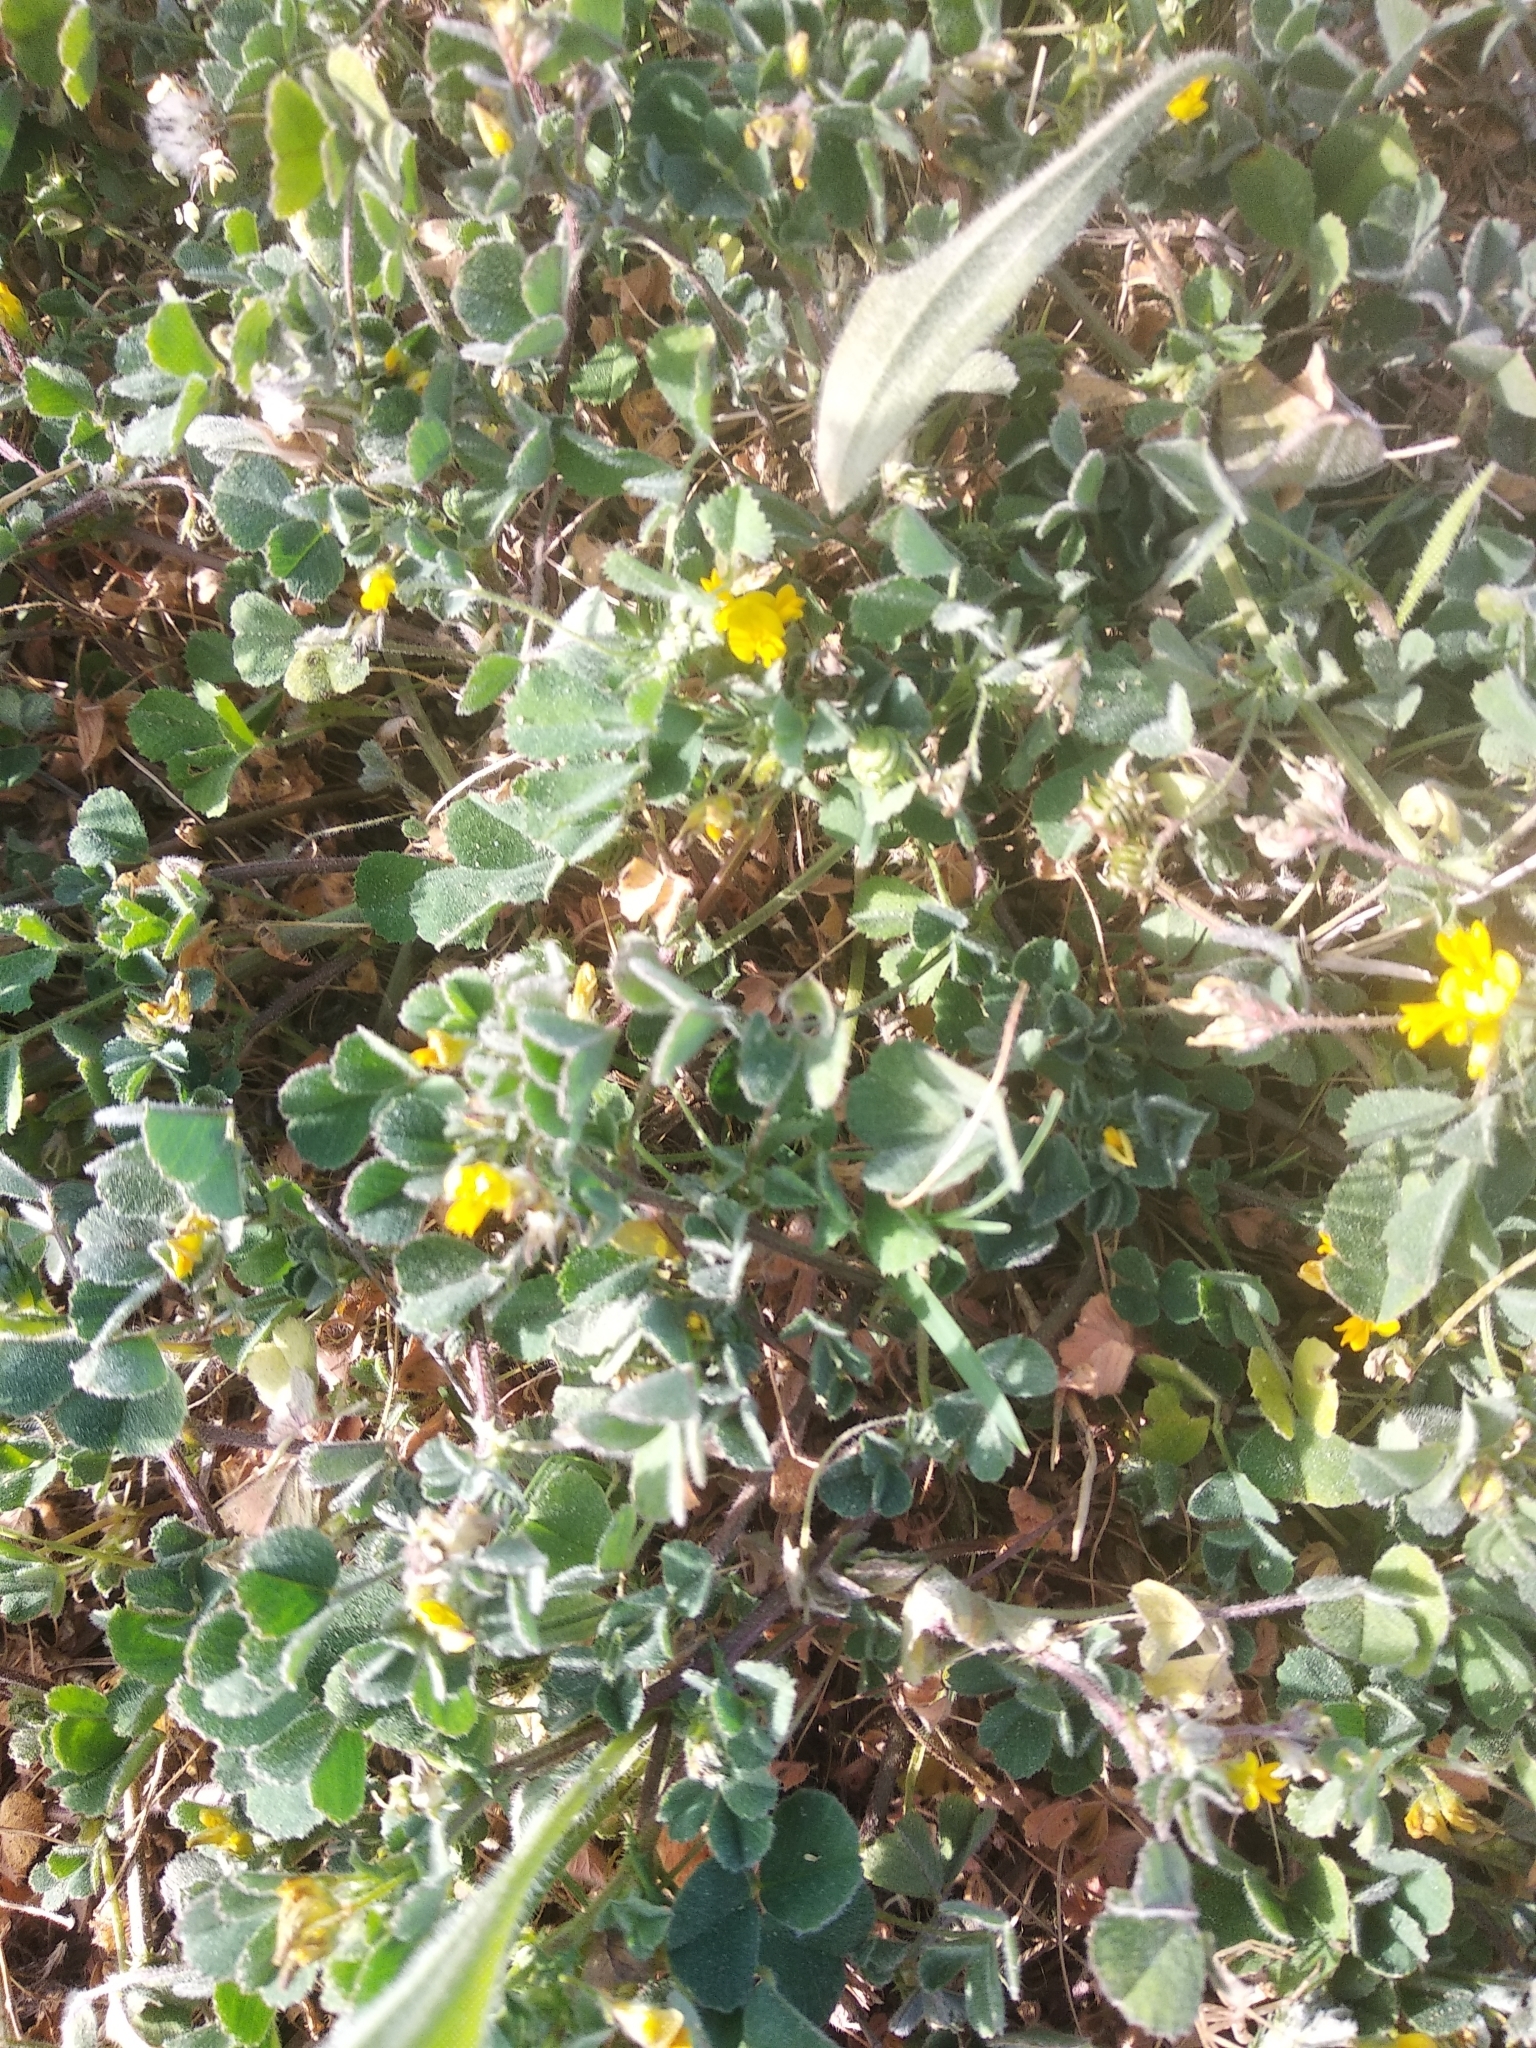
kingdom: Plantae
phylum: Tracheophyta
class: Magnoliopsida
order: Fabales
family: Fabaceae
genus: Medicago
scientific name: Medicago littoralis
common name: Shore medick
